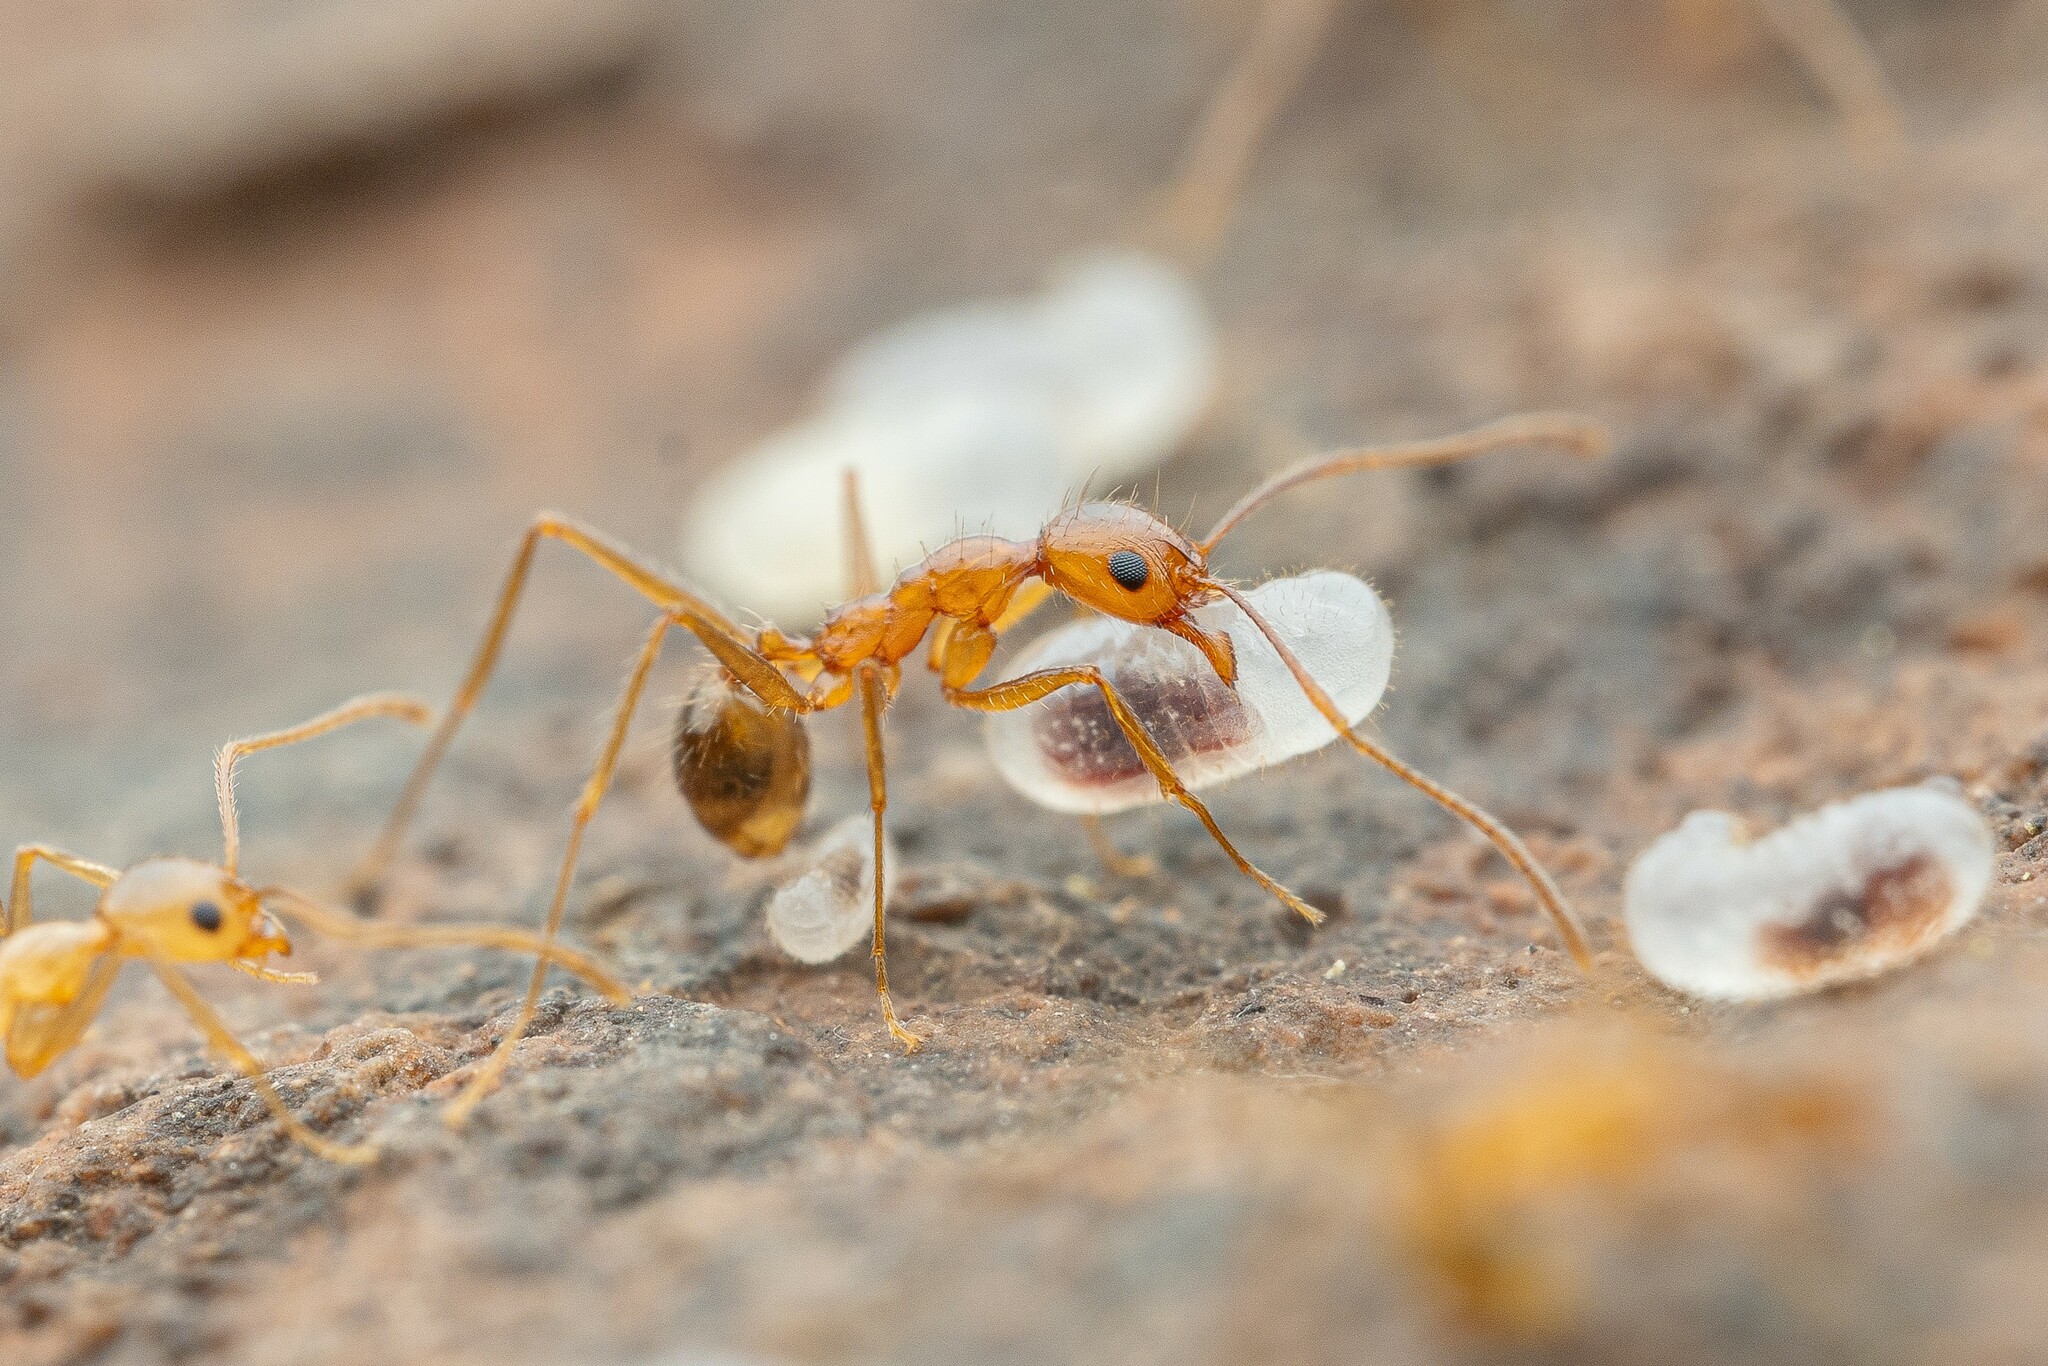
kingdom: Animalia
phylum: Arthropoda
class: Insecta
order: Hymenoptera
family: Formicidae
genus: Pheidole
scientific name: Pheidole desertorum
